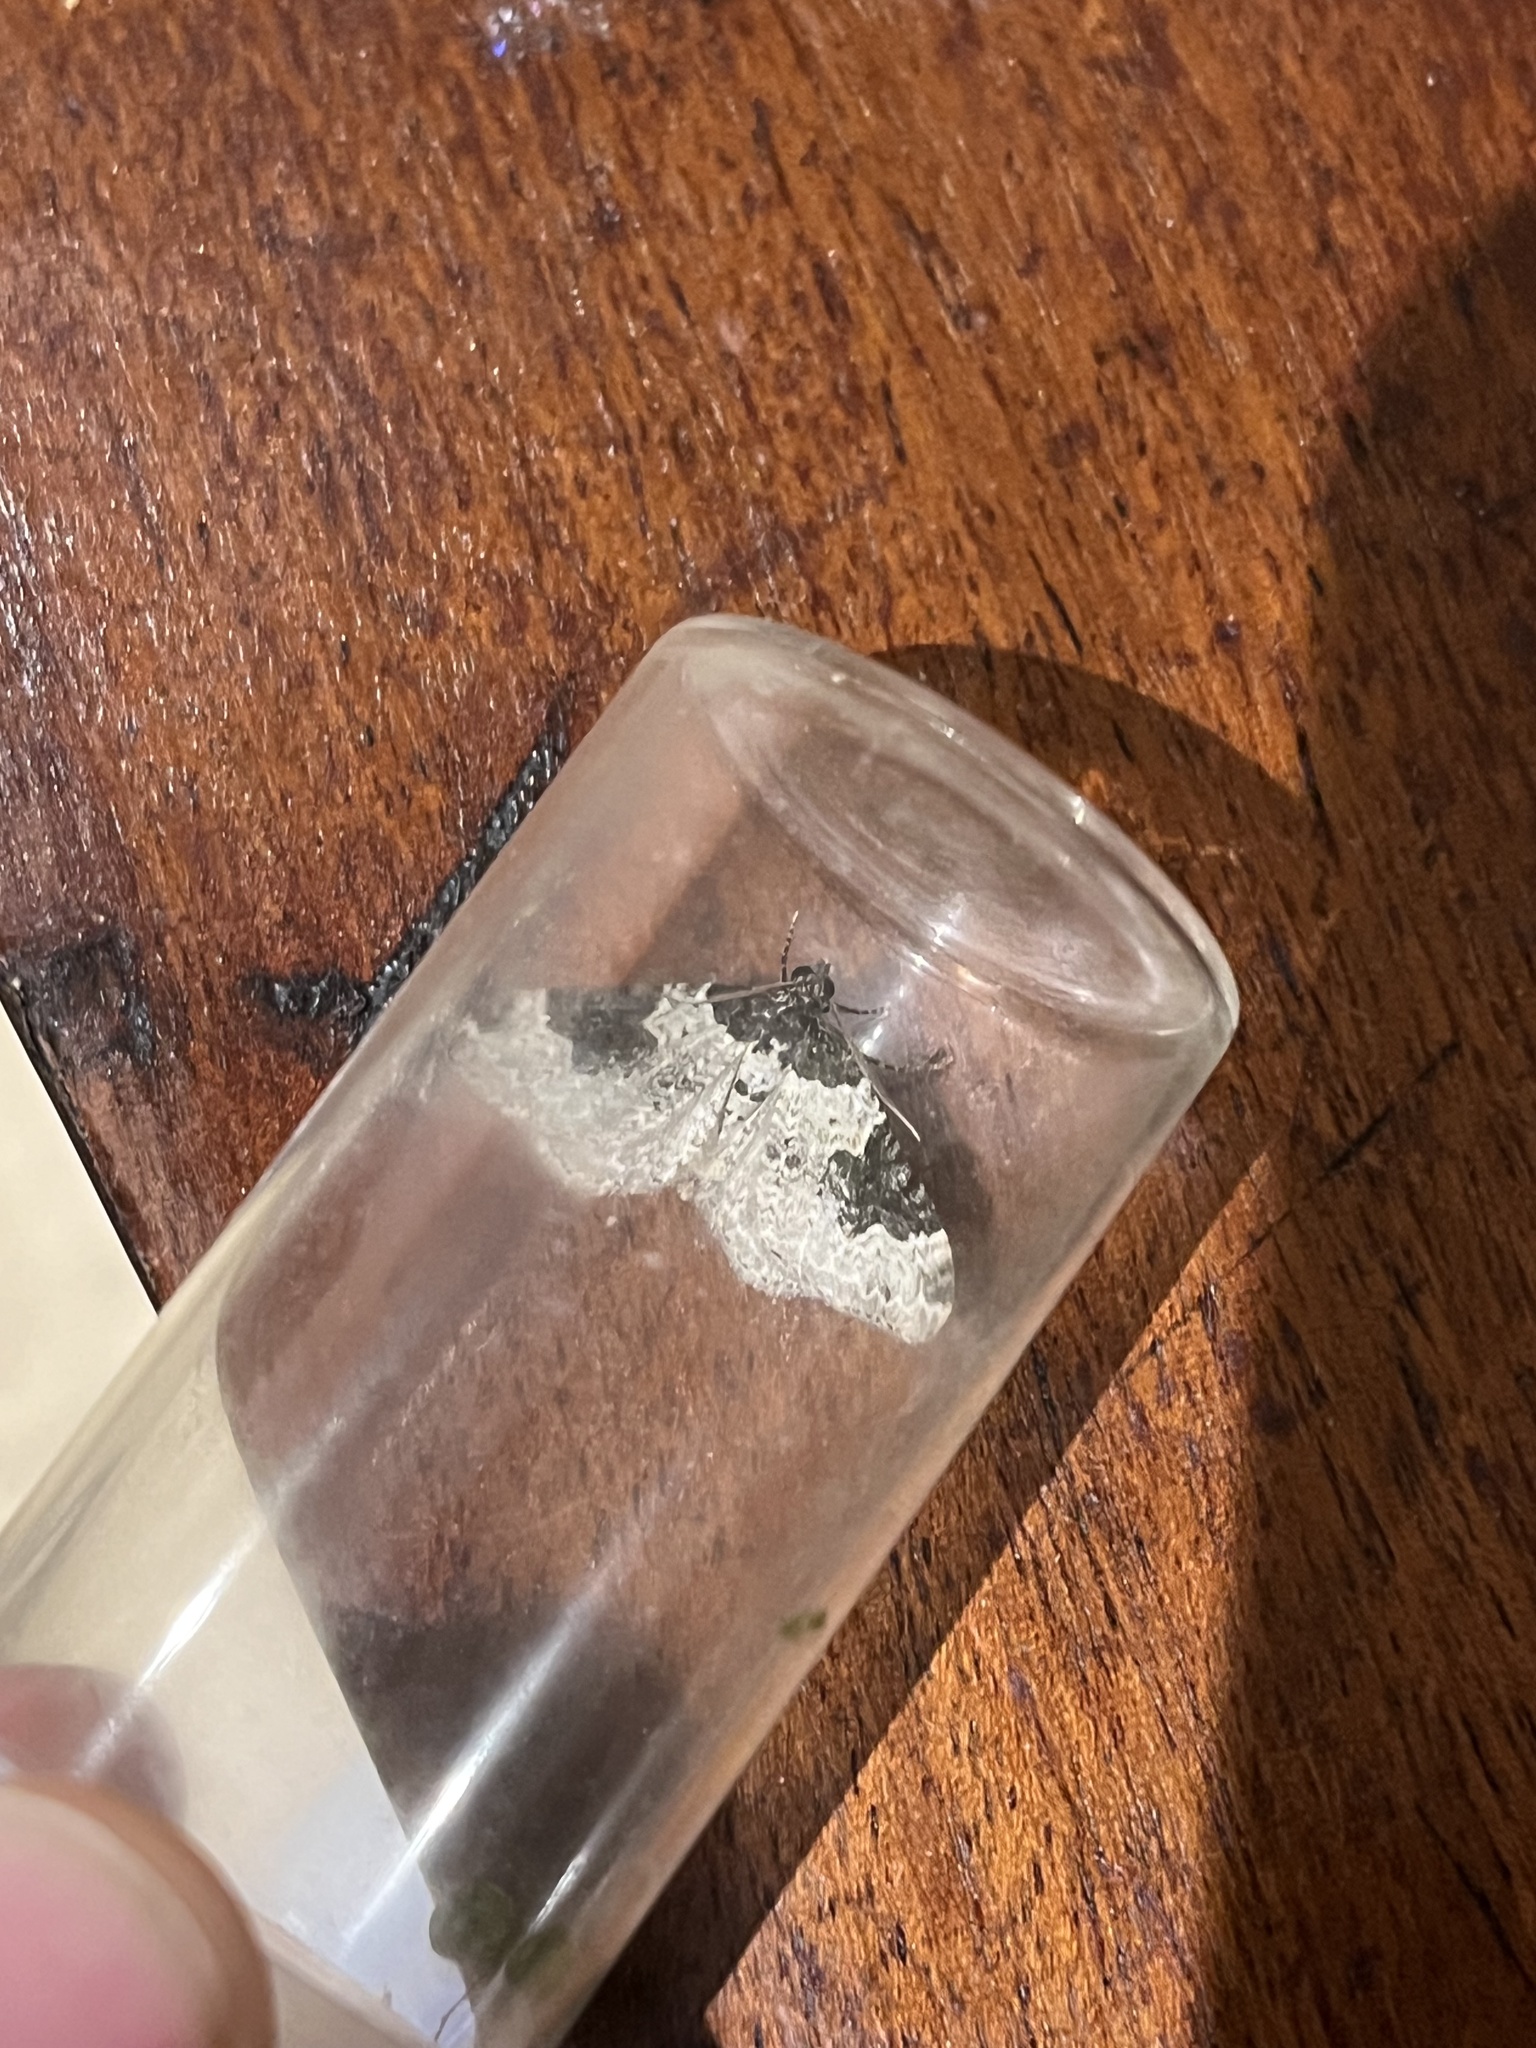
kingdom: Animalia
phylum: Arthropoda
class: Insecta
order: Lepidoptera
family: Geometridae
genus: Xanthorhoe
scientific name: Xanthorhoe fluctuata
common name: Garden carpet
